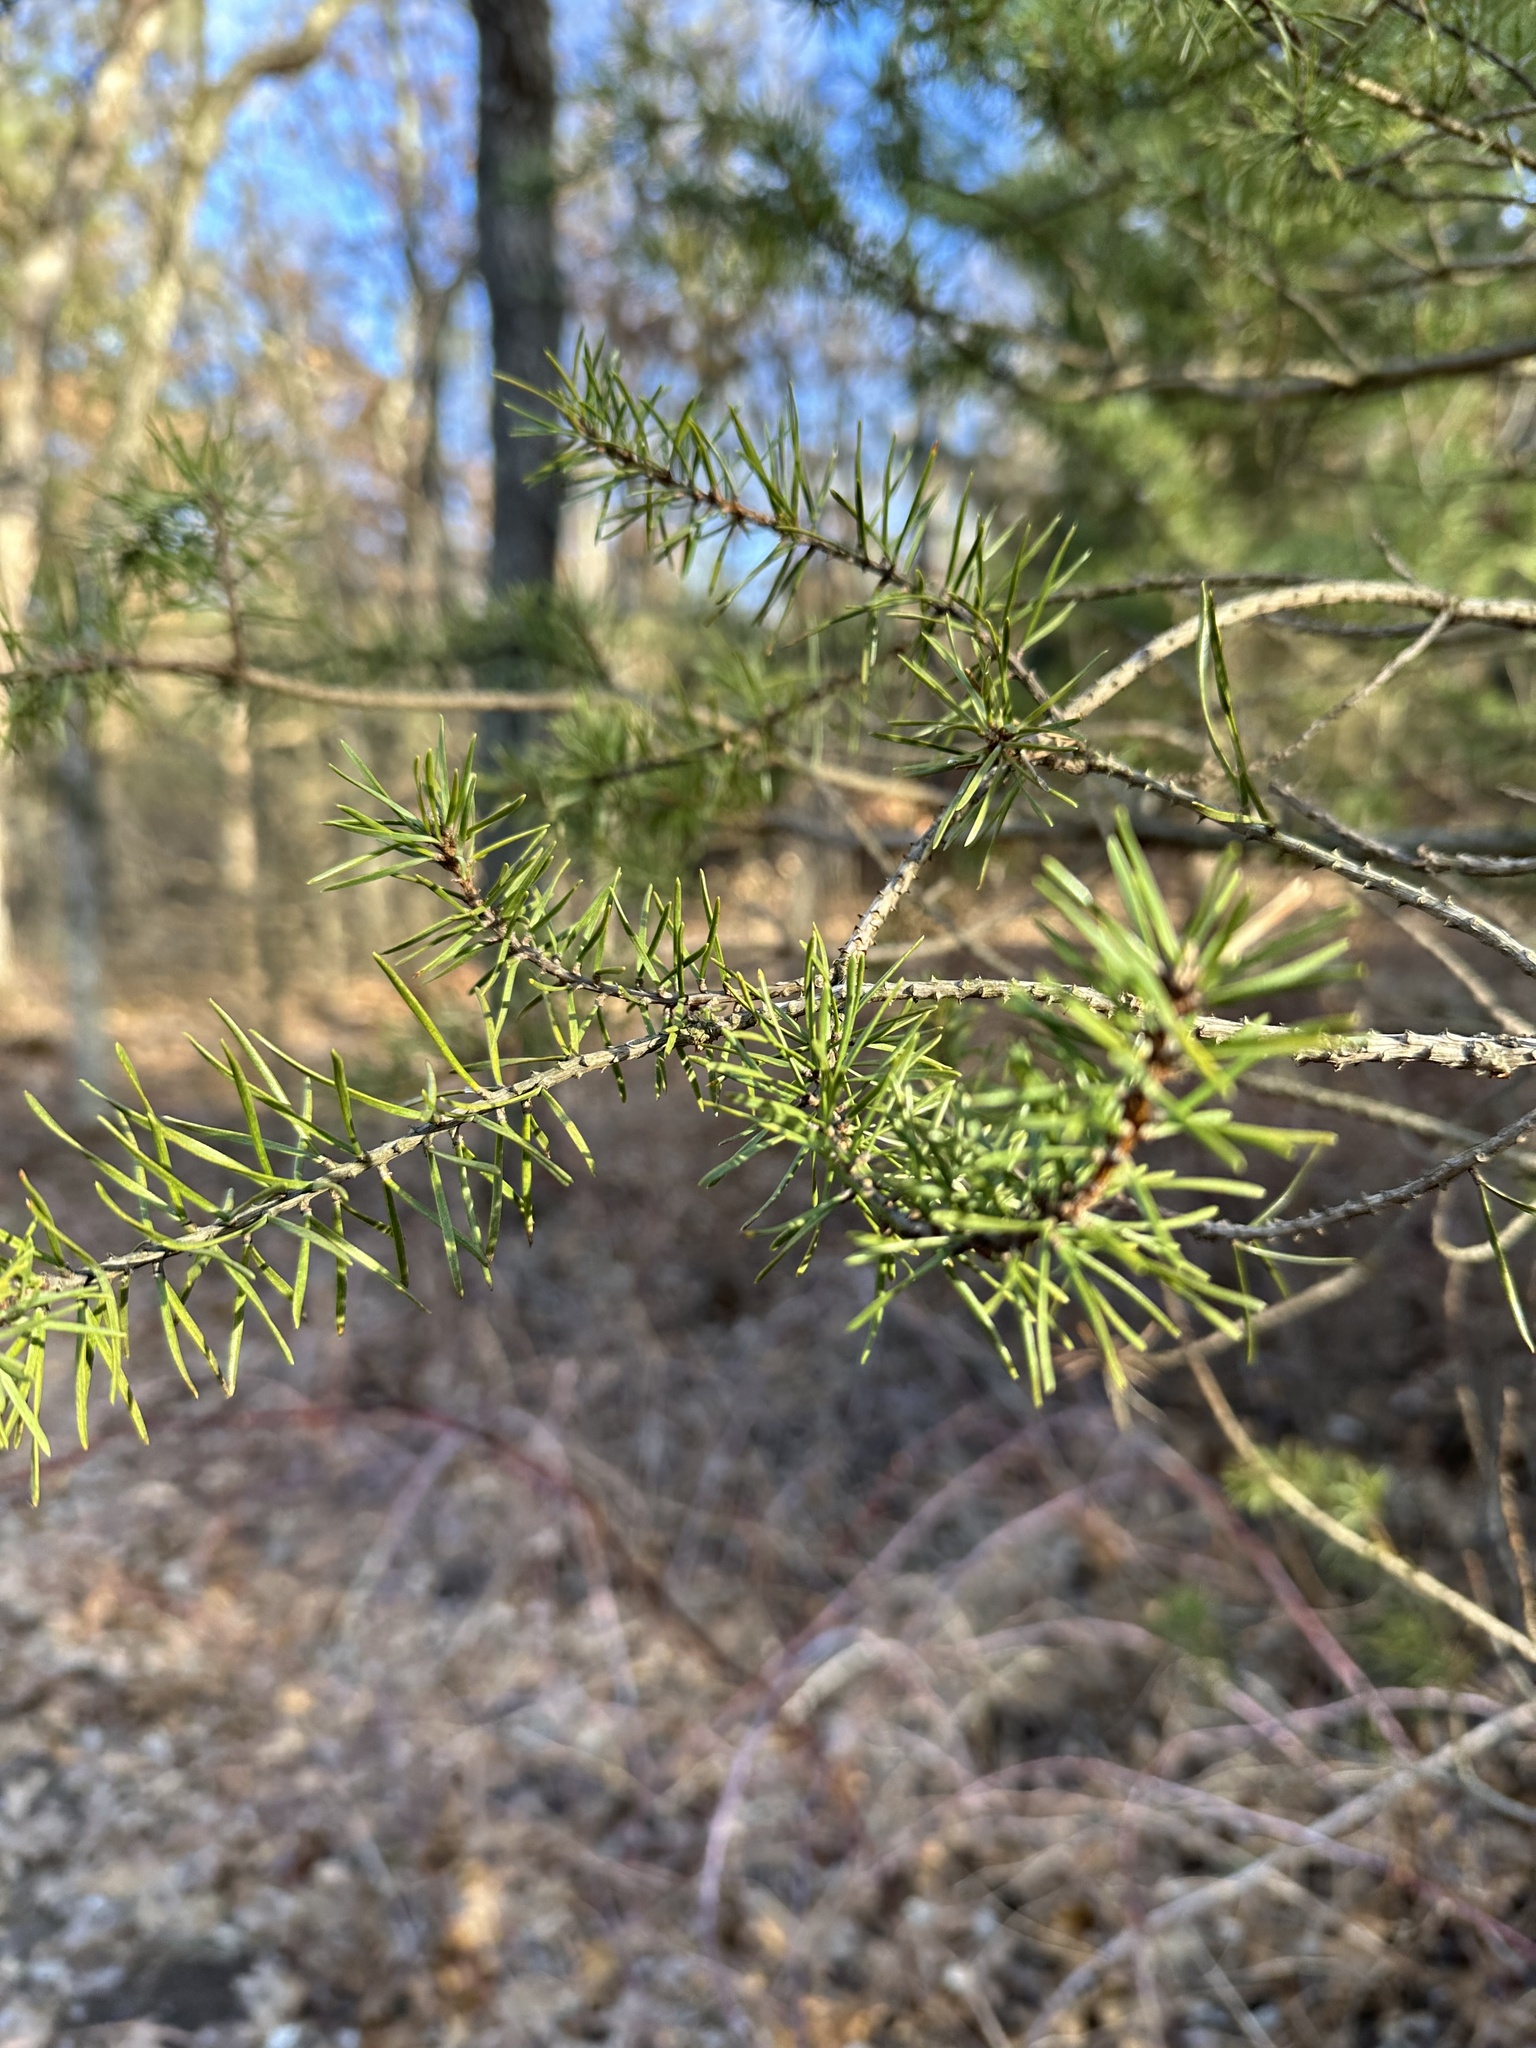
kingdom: Plantae
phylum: Tracheophyta
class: Pinopsida
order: Pinales
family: Pinaceae
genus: Pinus
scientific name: Pinus banksiana
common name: Jack pine
